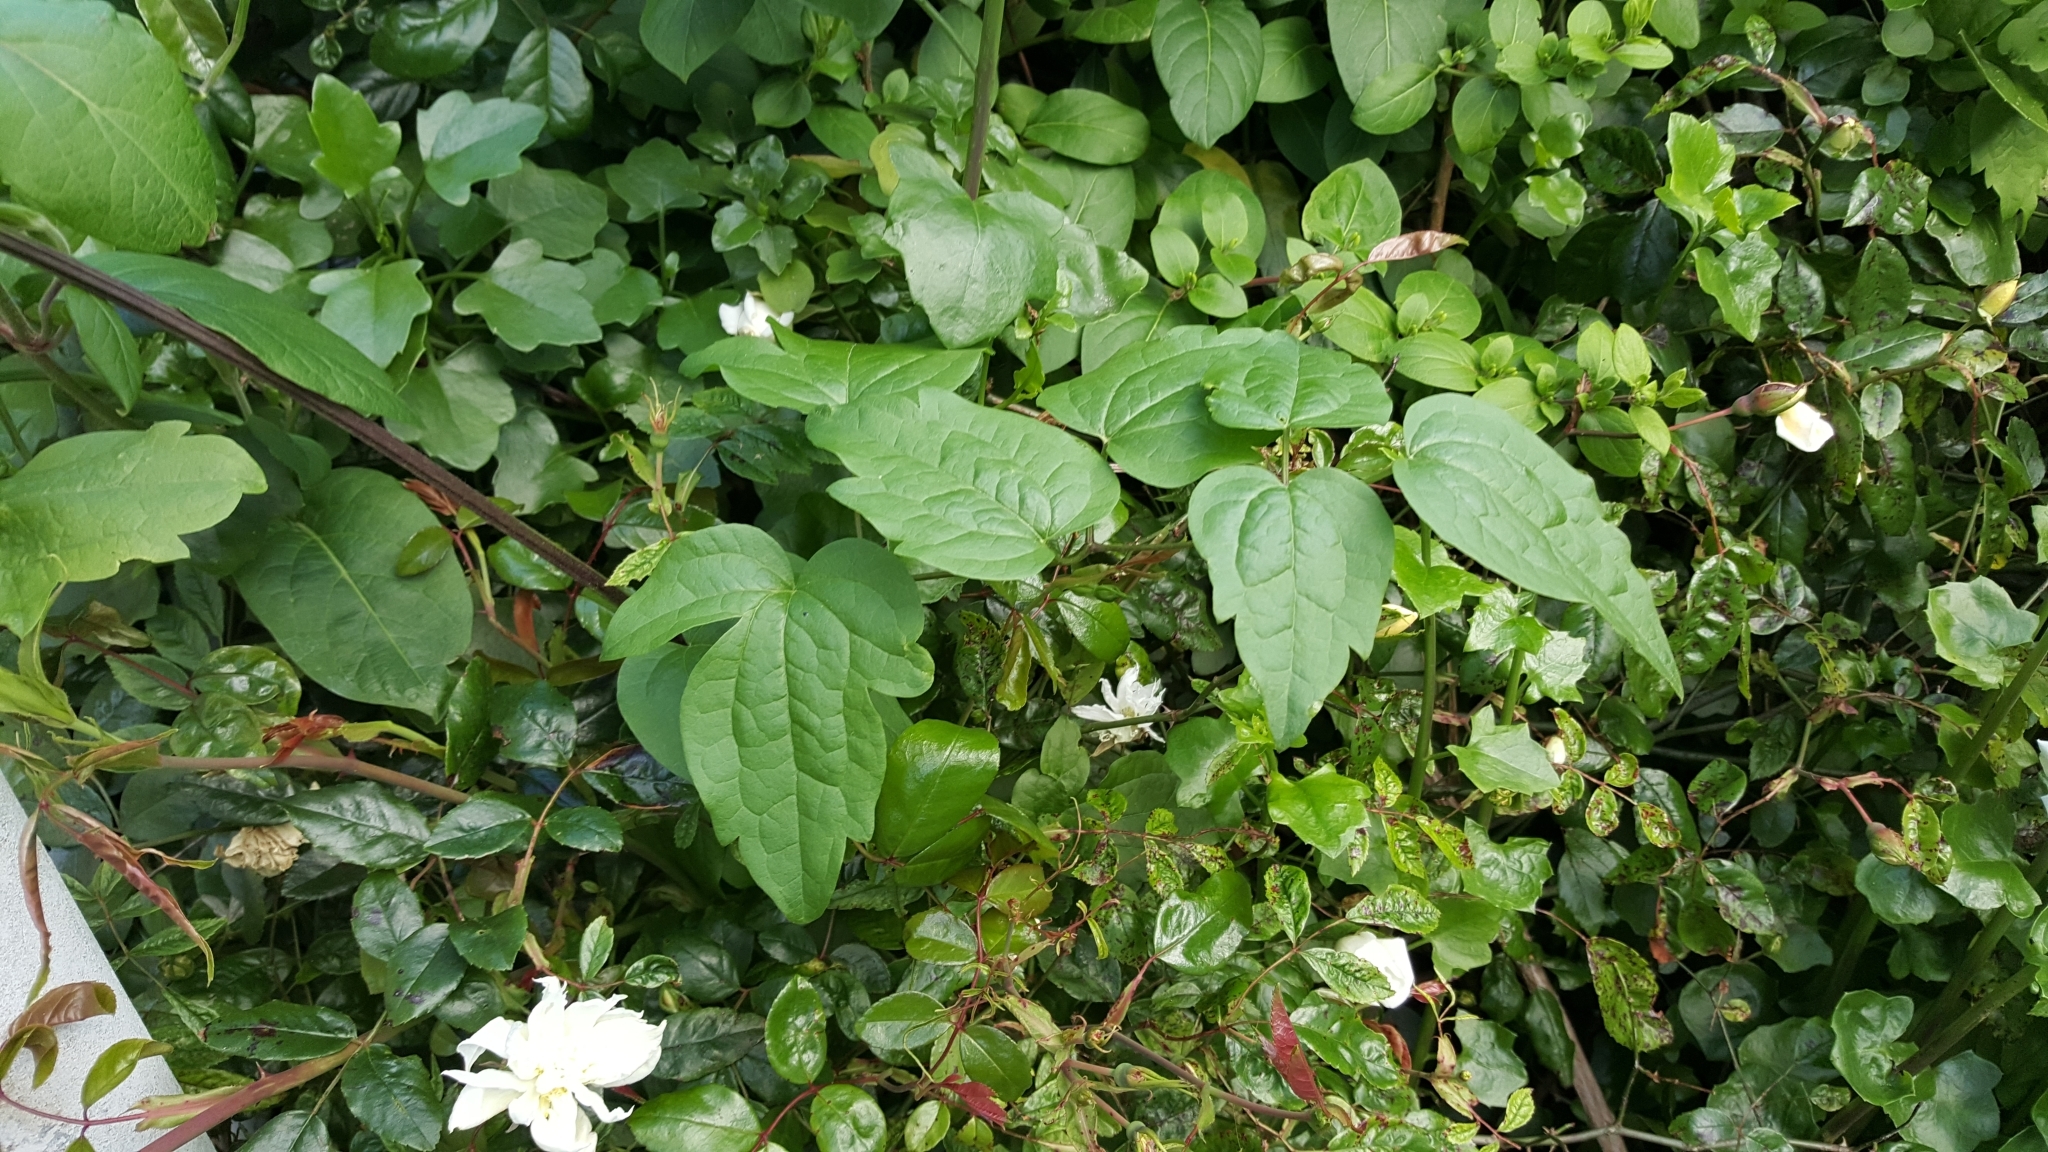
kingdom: Plantae
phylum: Tracheophyta
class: Magnoliopsida
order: Ranunculales
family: Ranunculaceae
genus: Clematis
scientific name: Clematis vitalba
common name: Evergreen clematis
